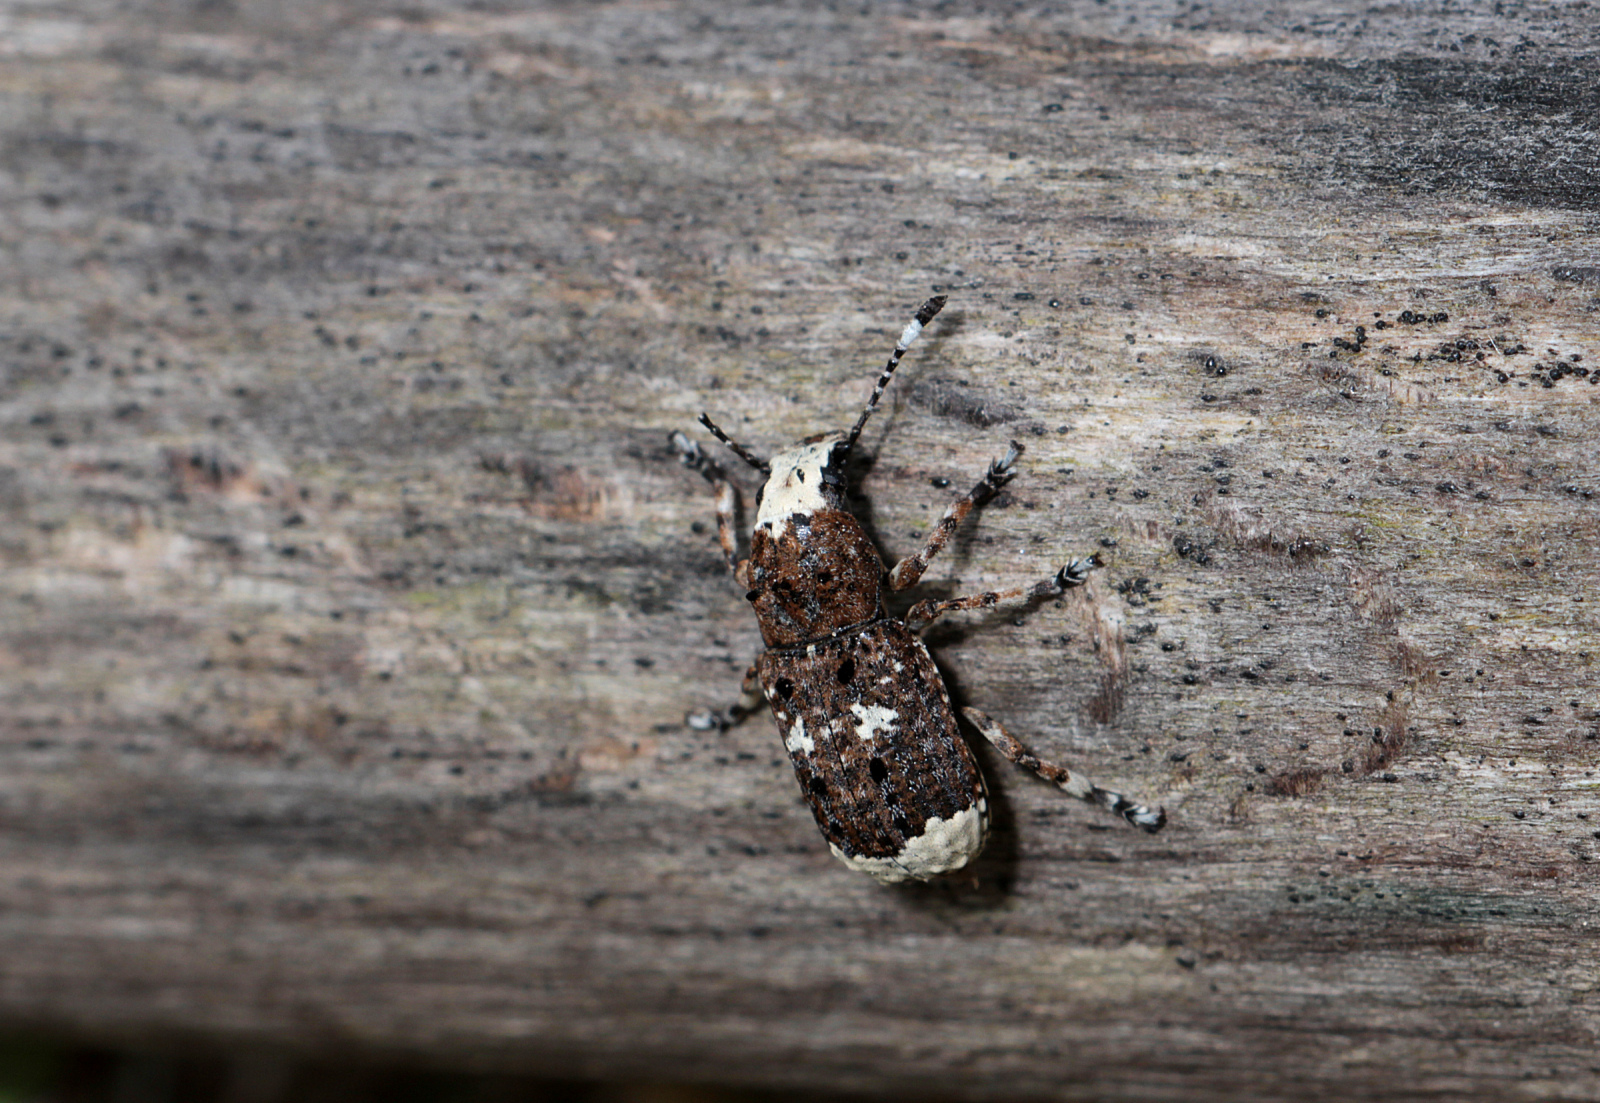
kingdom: Animalia
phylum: Arthropoda
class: Insecta
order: Coleoptera
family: Anthribidae
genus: Platystomos
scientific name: Platystomos albinus
